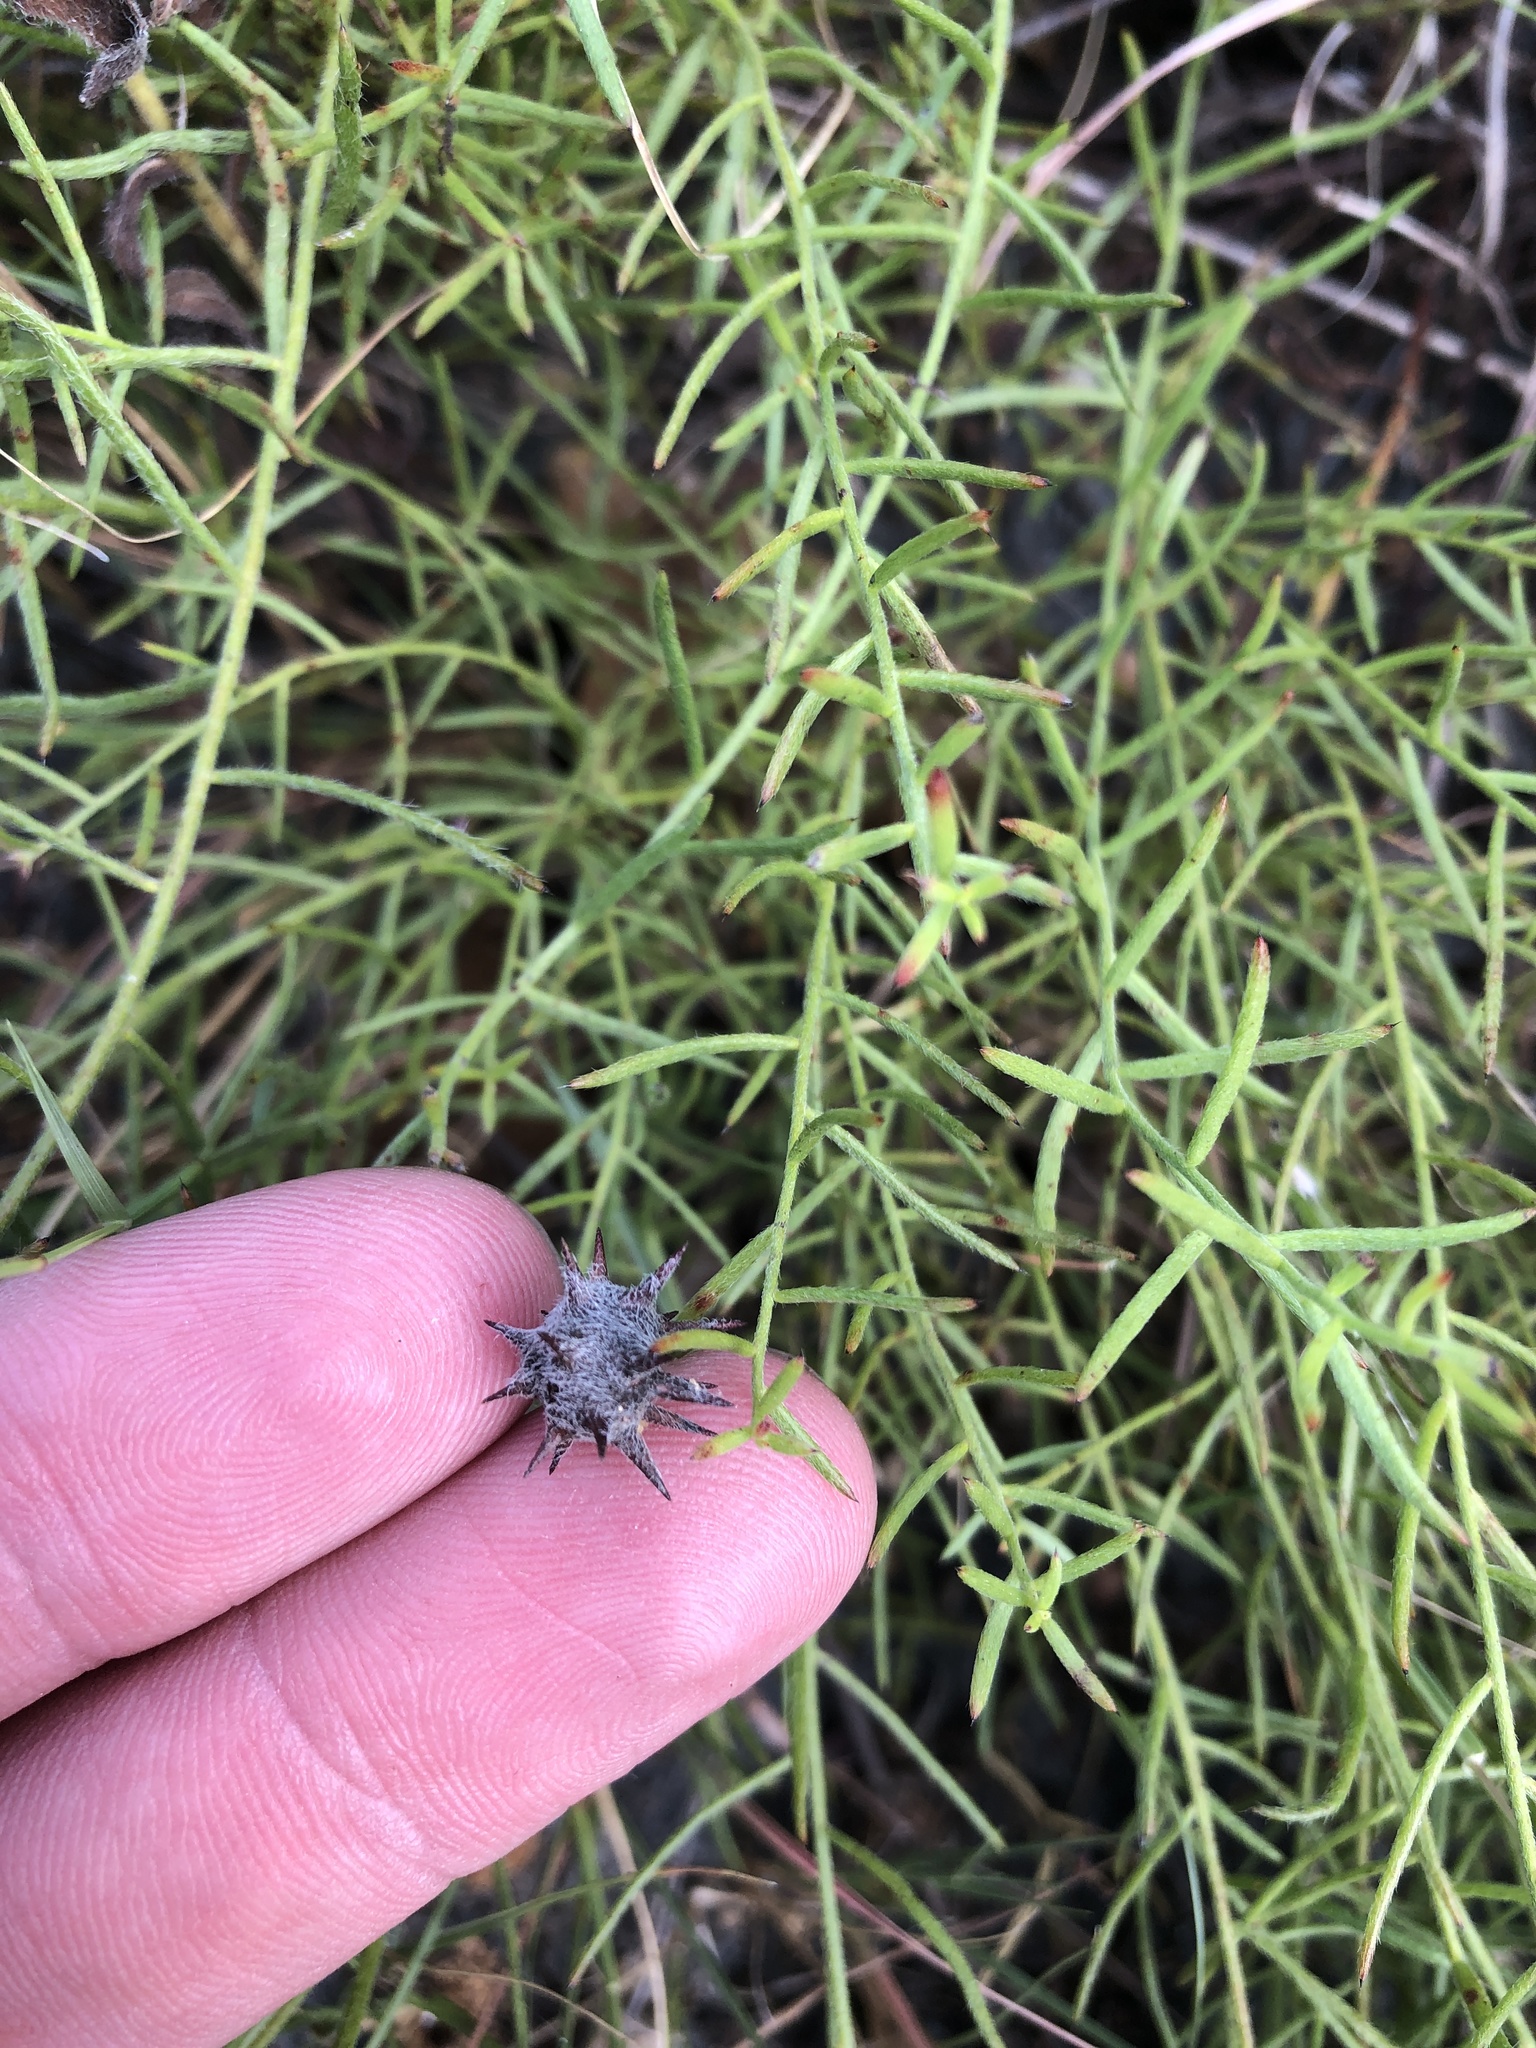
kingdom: Plantae
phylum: Tracheophyta
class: Magnoliopsida
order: Zygophyllales
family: Krameriaceae
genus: Krameria
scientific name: Krameria lanceolata
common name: Ratany
